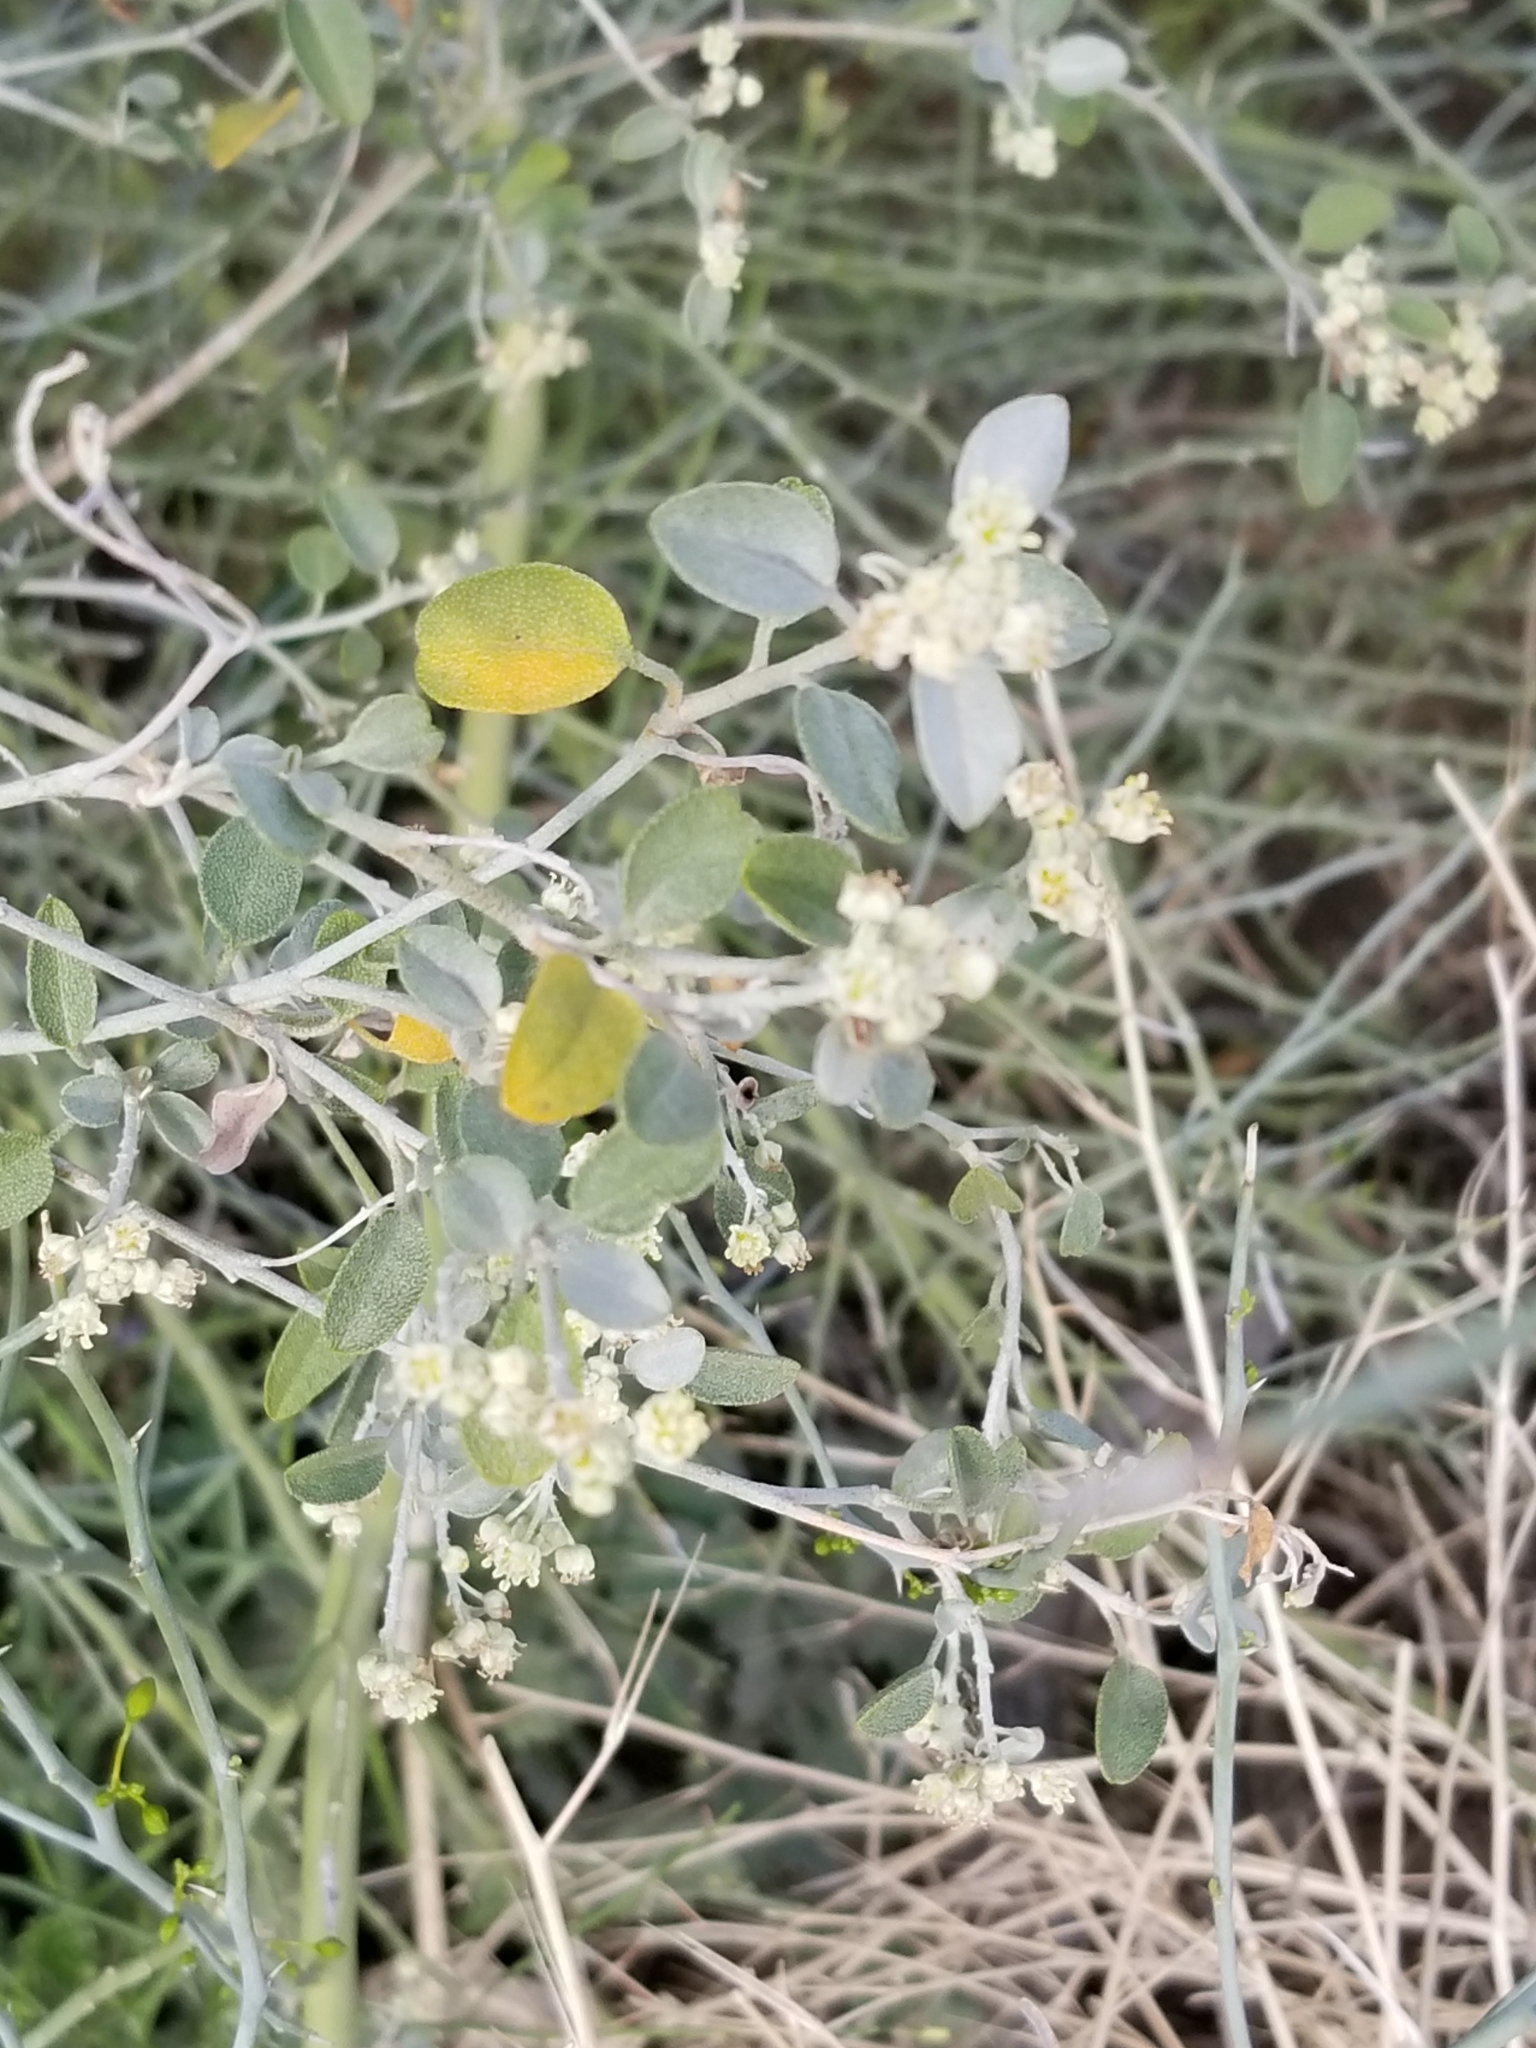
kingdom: Plantae
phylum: Tracheophyta
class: Magnoliopsida
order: Malpighiales
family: Euphorbiaceae
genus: Croton
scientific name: Croton californicus
